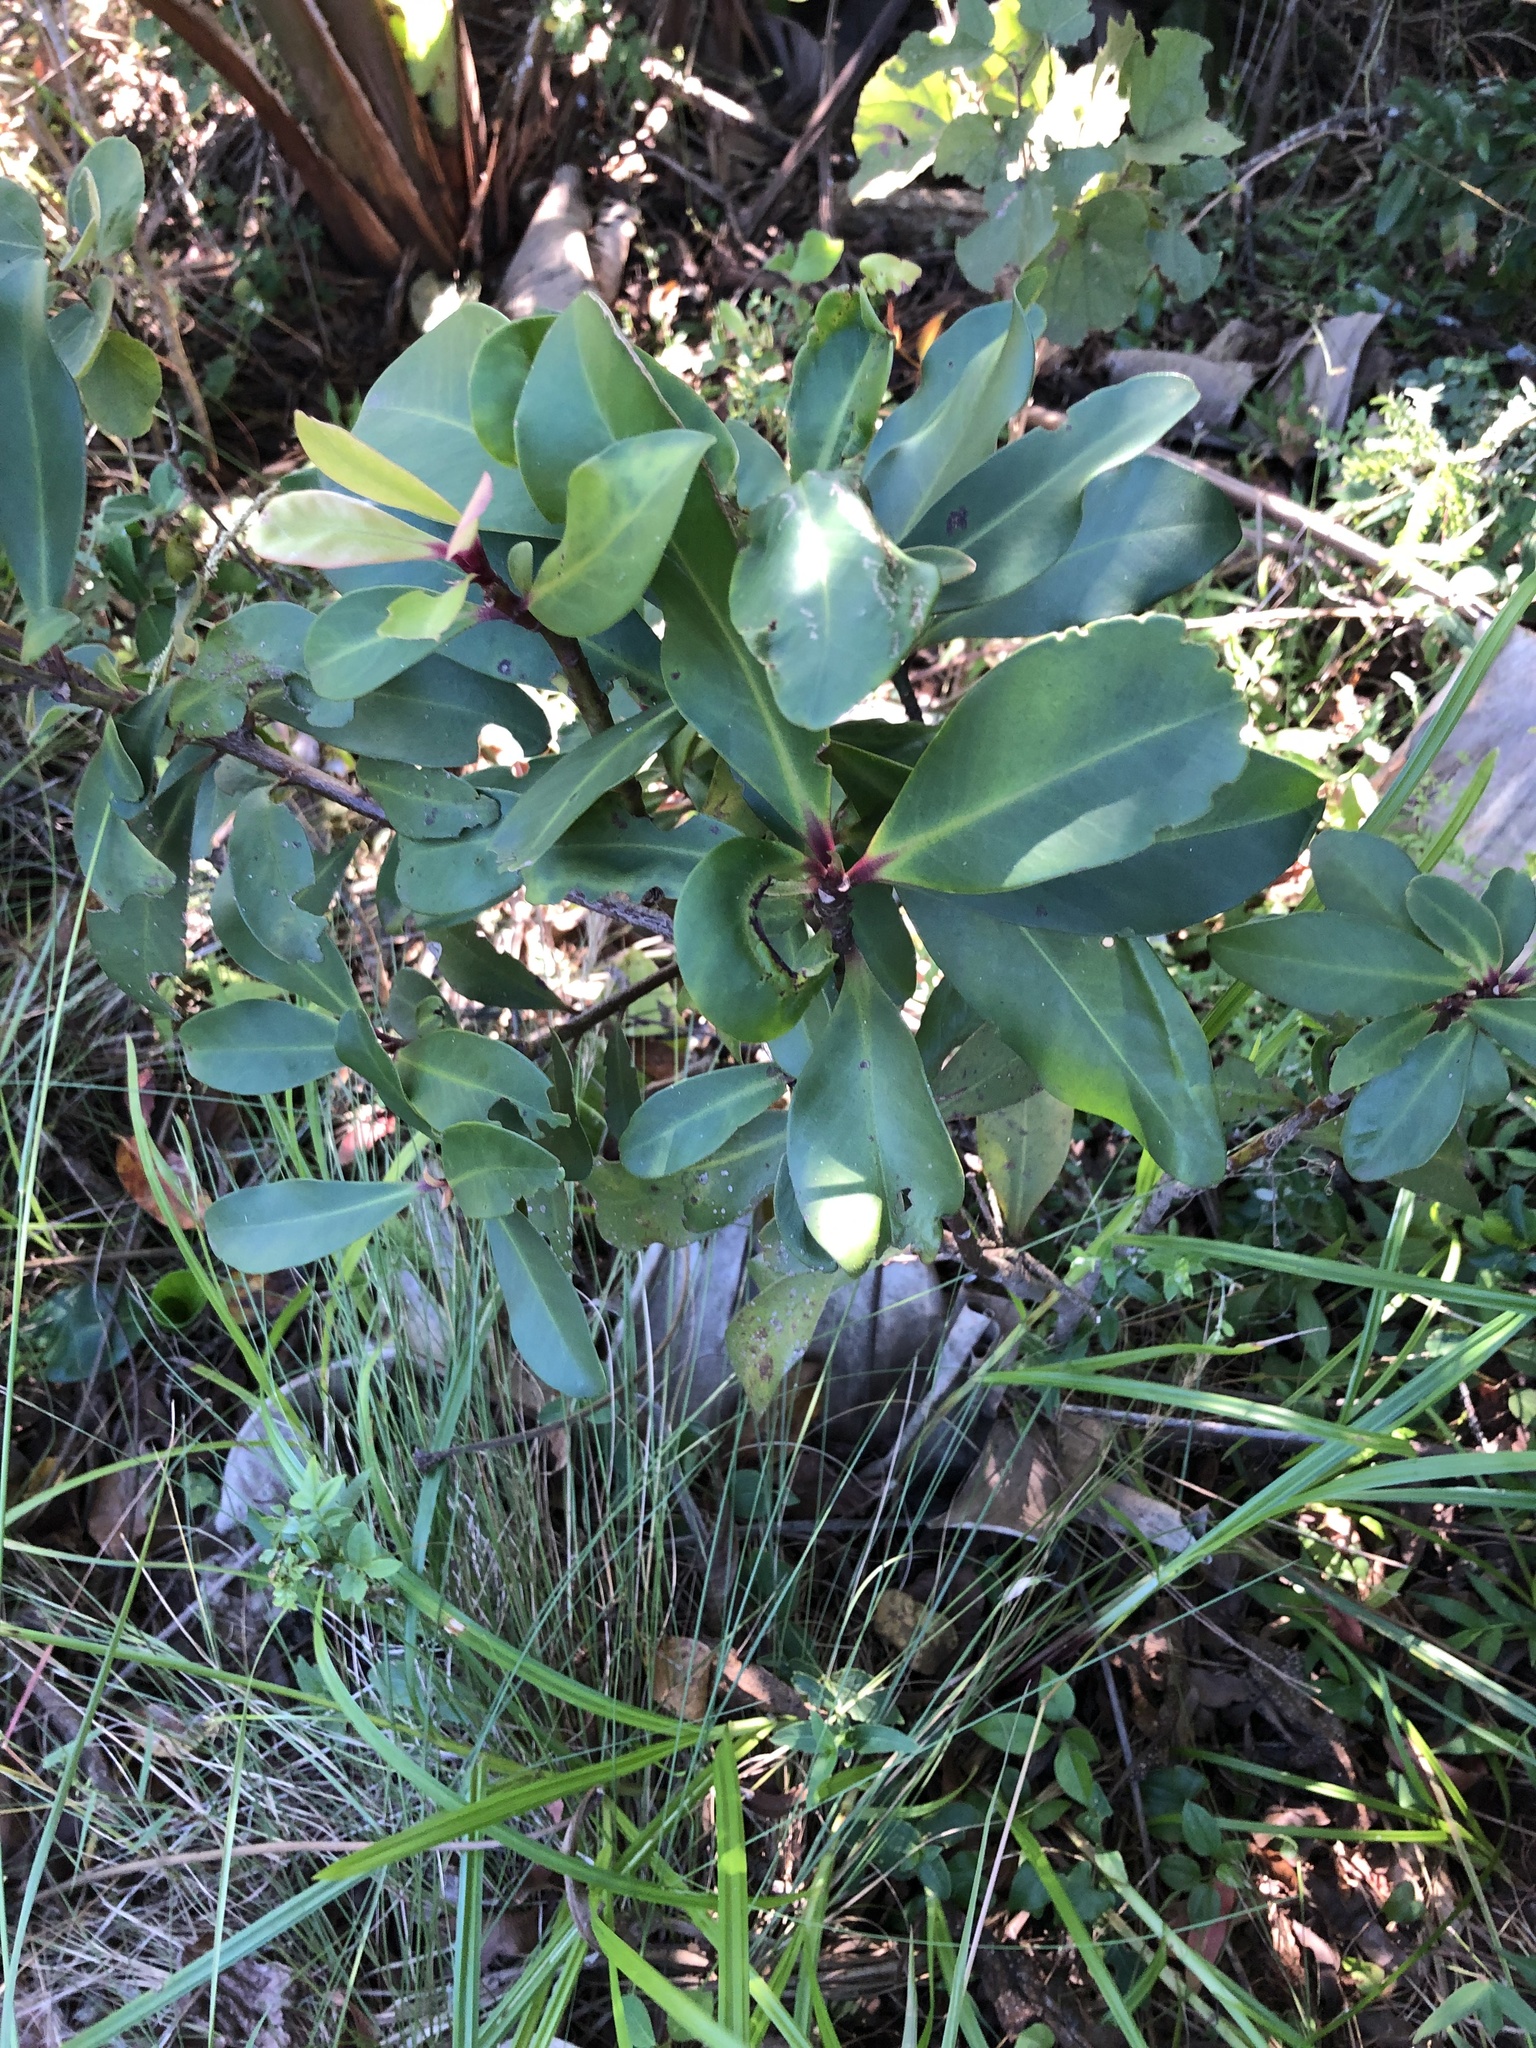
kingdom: Plantae
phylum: Tracheophyta
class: Magnoliopsida
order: Ericales
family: Primulaceae
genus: Myrsine
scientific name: Myrsine melanophloeos
